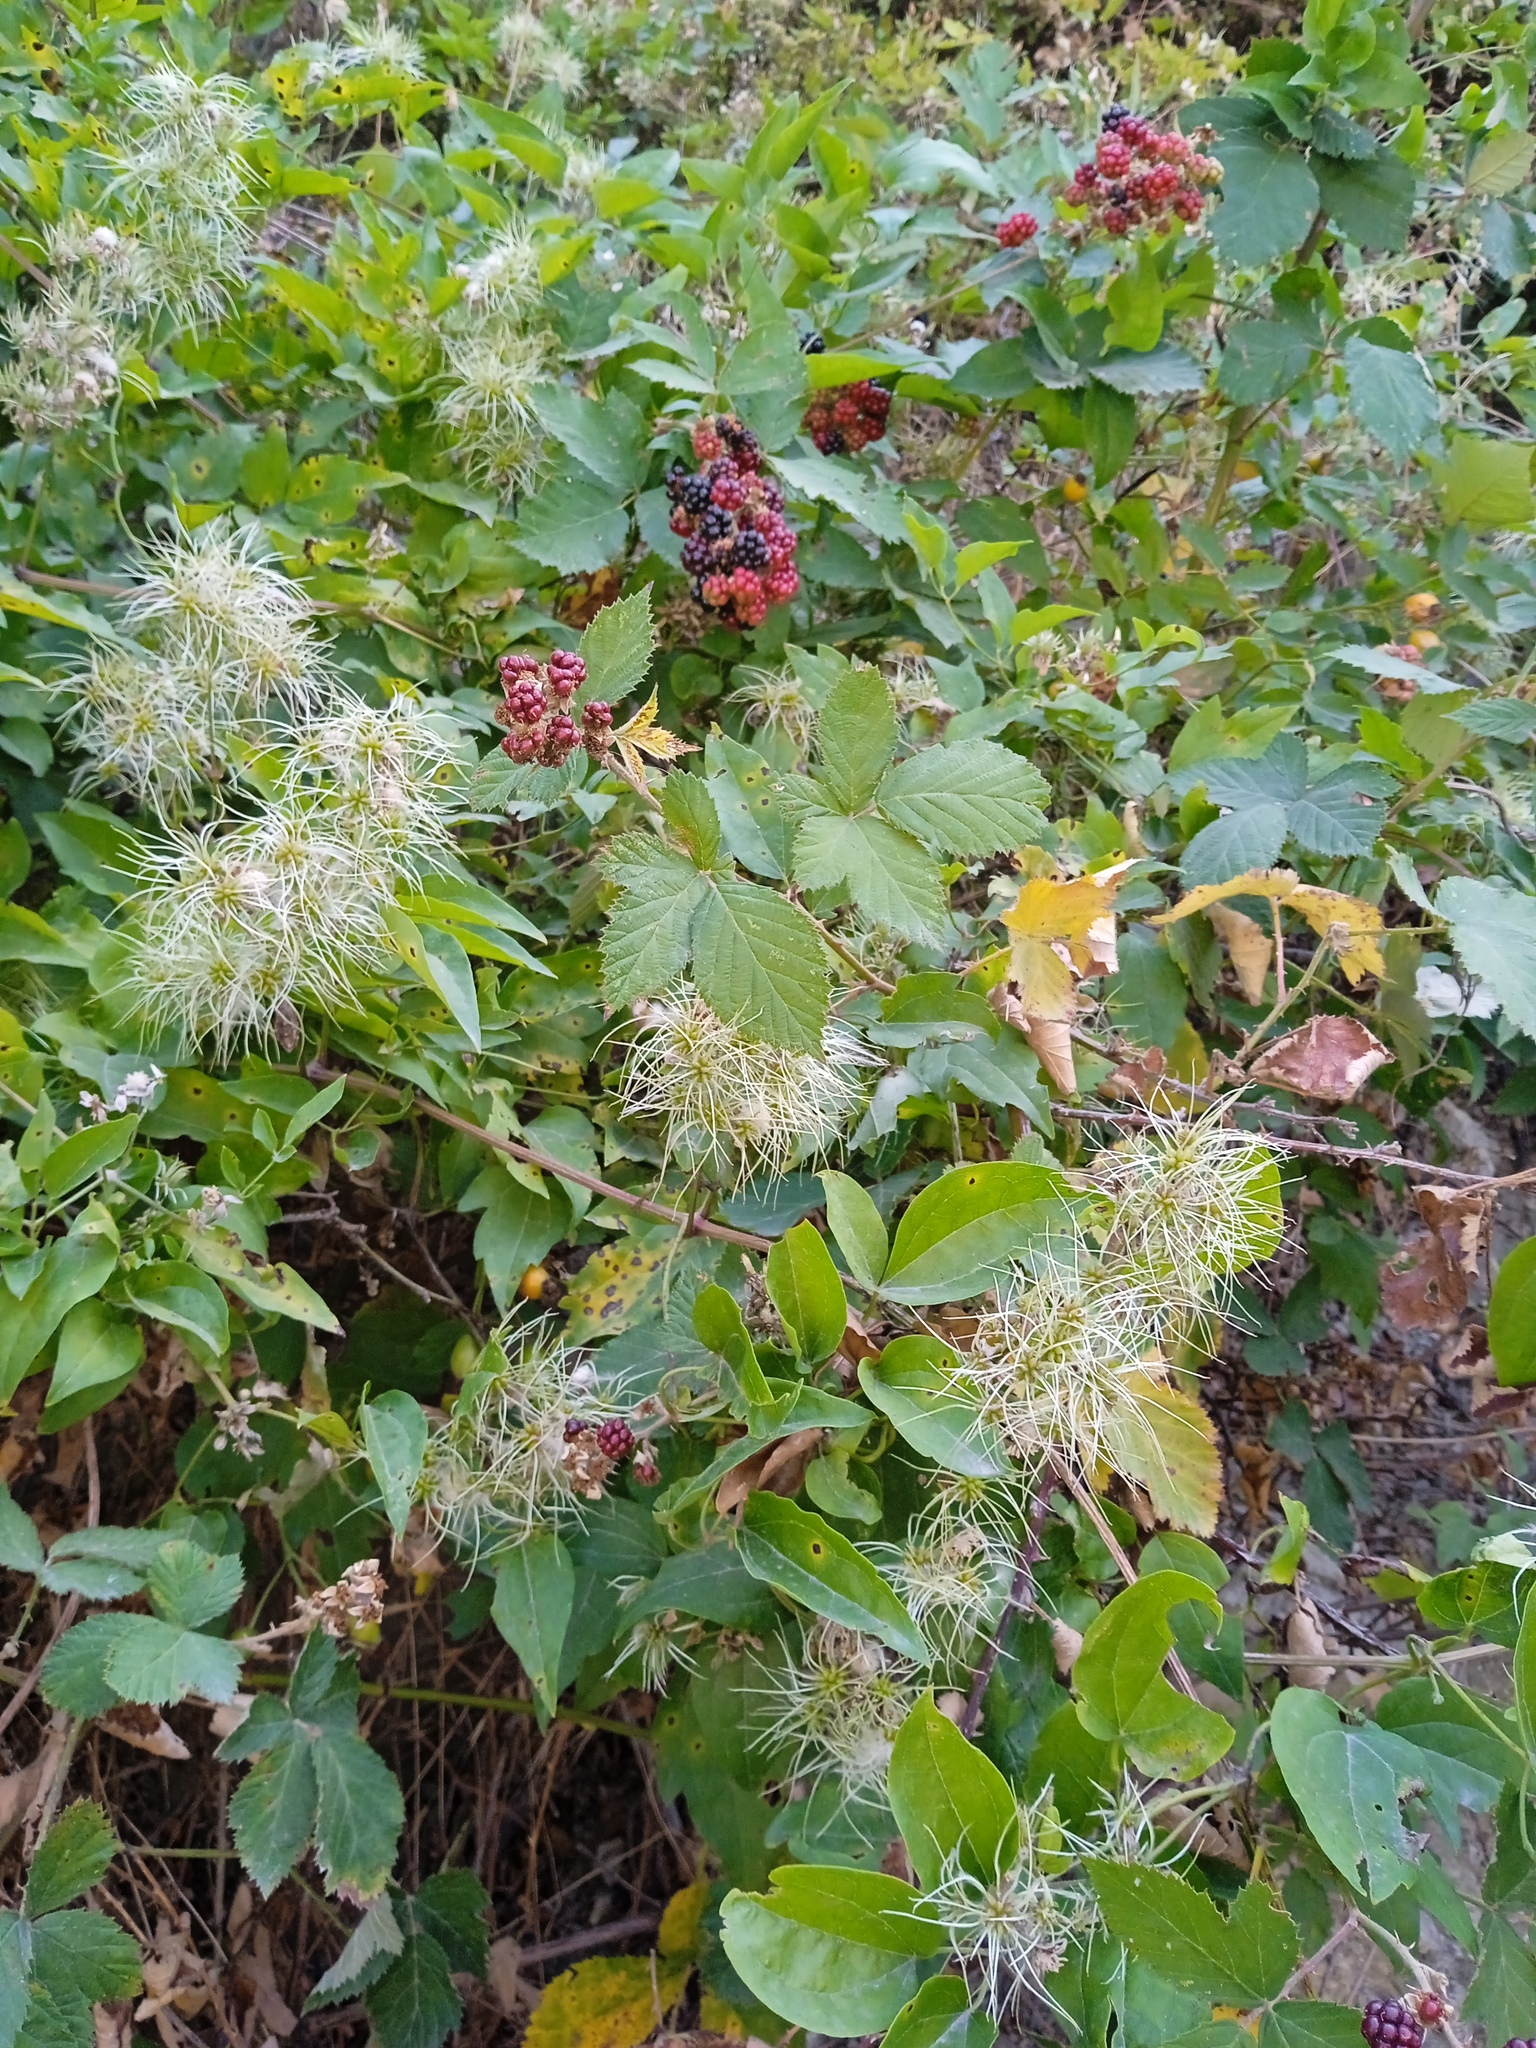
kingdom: Plantae
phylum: Tracheophyta
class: Magnoliopsida
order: Ranunculales
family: Ranunculaceae
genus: Clematis
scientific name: Clematis vitalba
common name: Evergreen clematis
